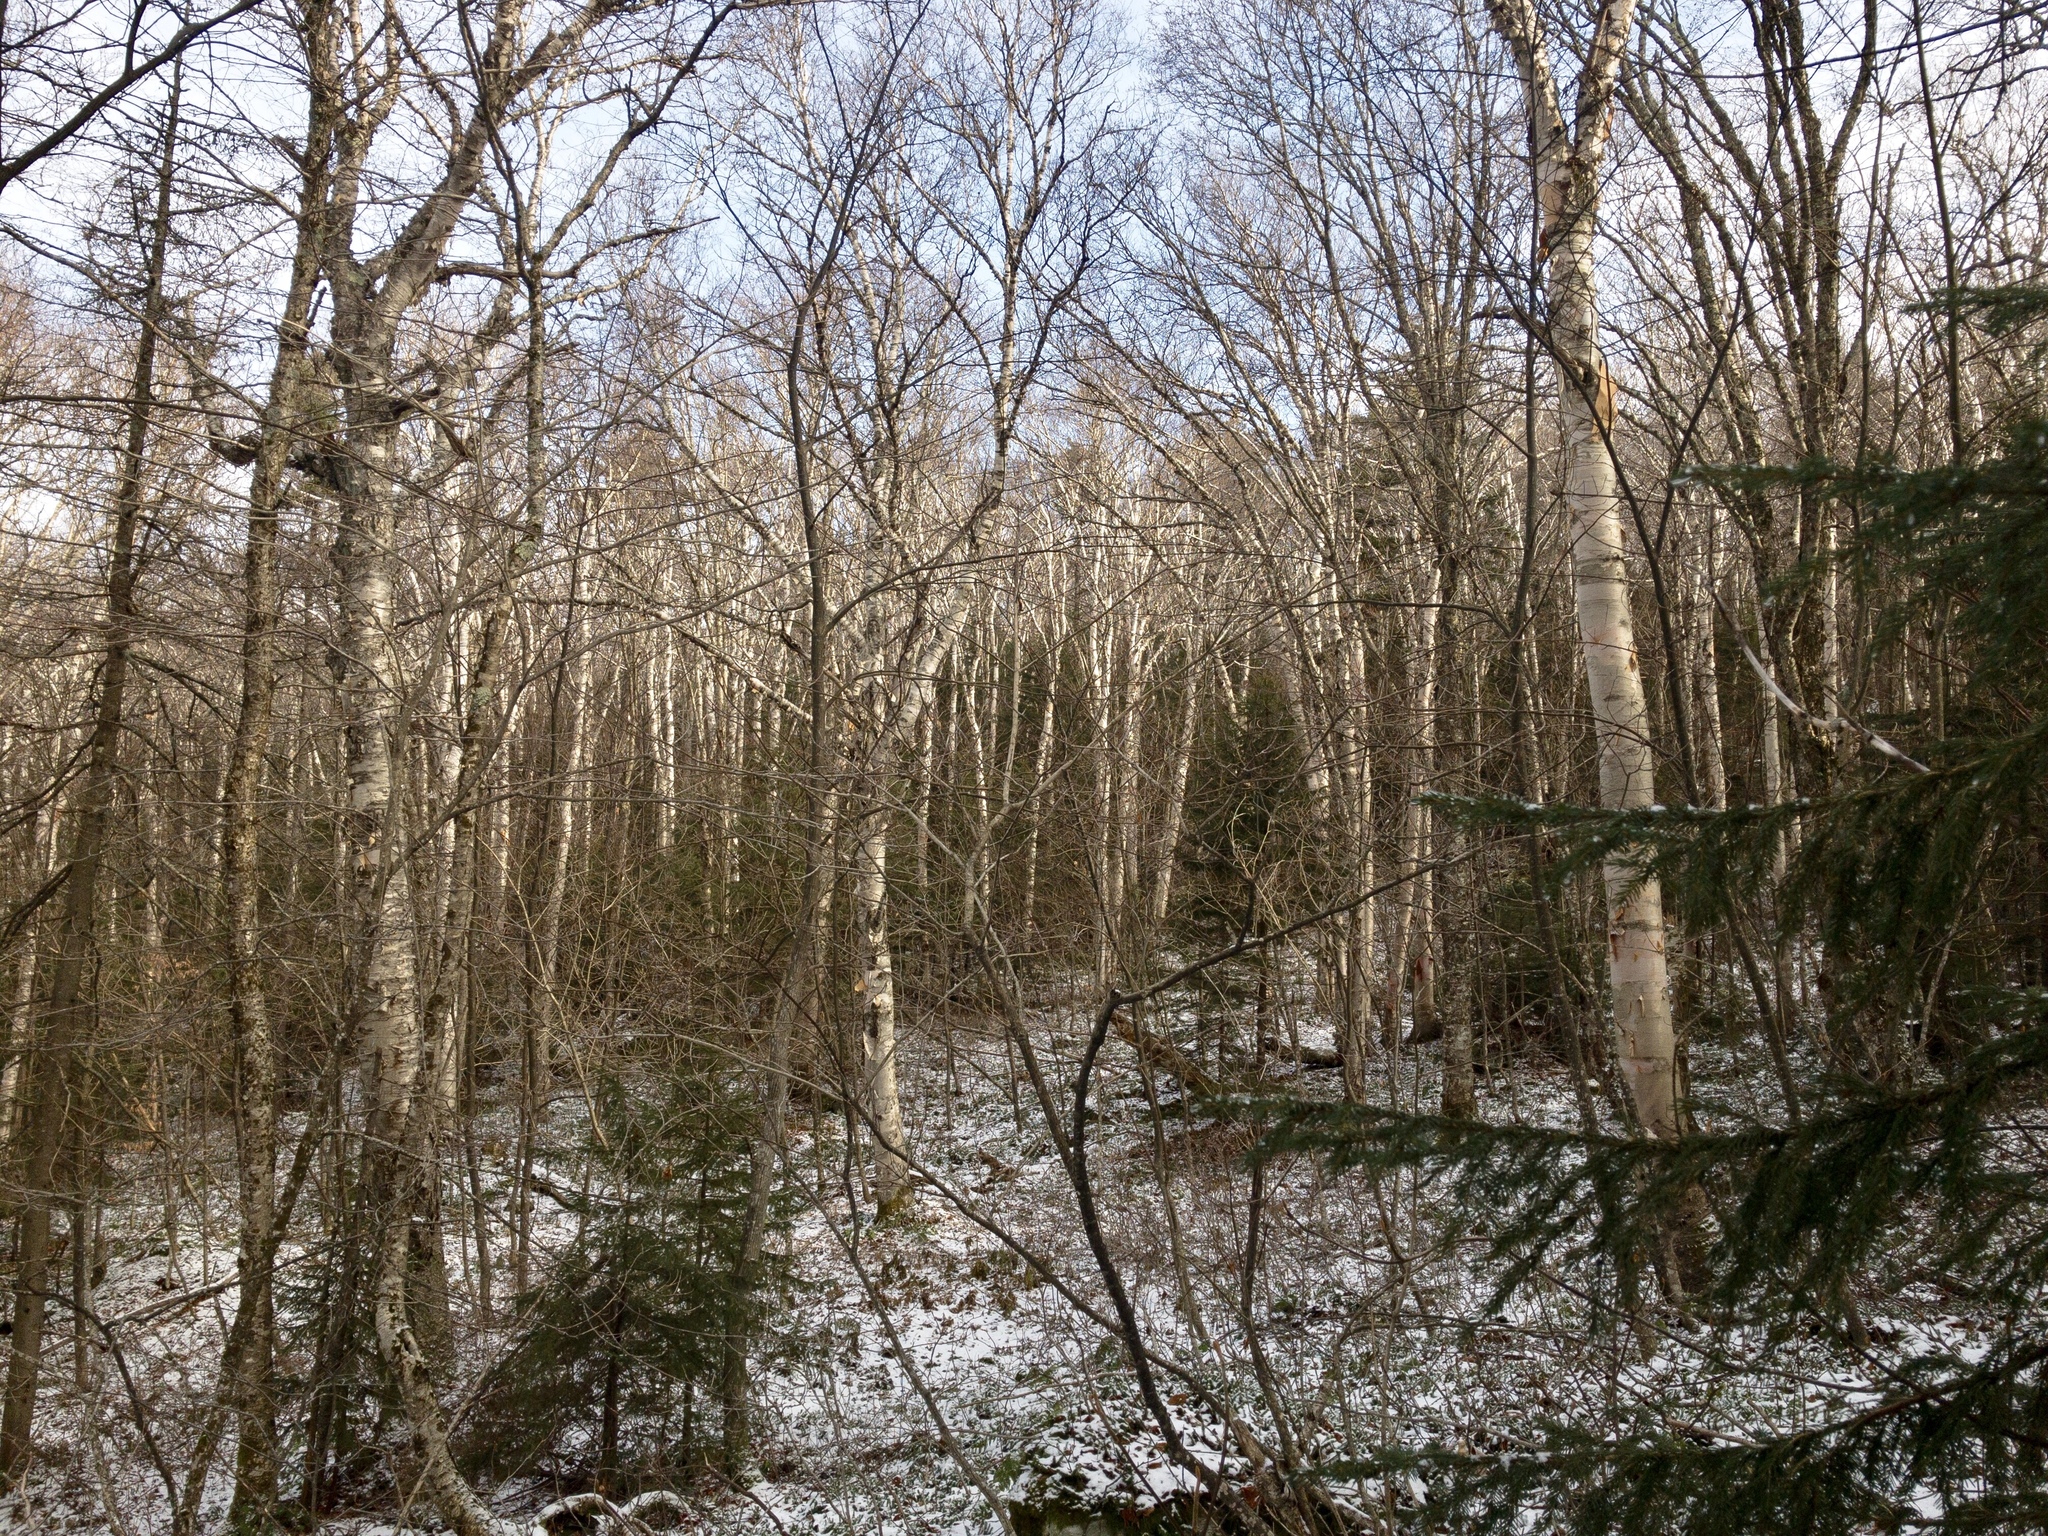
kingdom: Plantae
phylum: Tracheophyta
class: Pinopsida
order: Pinales
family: Pinaceae
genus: Picea
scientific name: Picea rubens
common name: Red spruce
